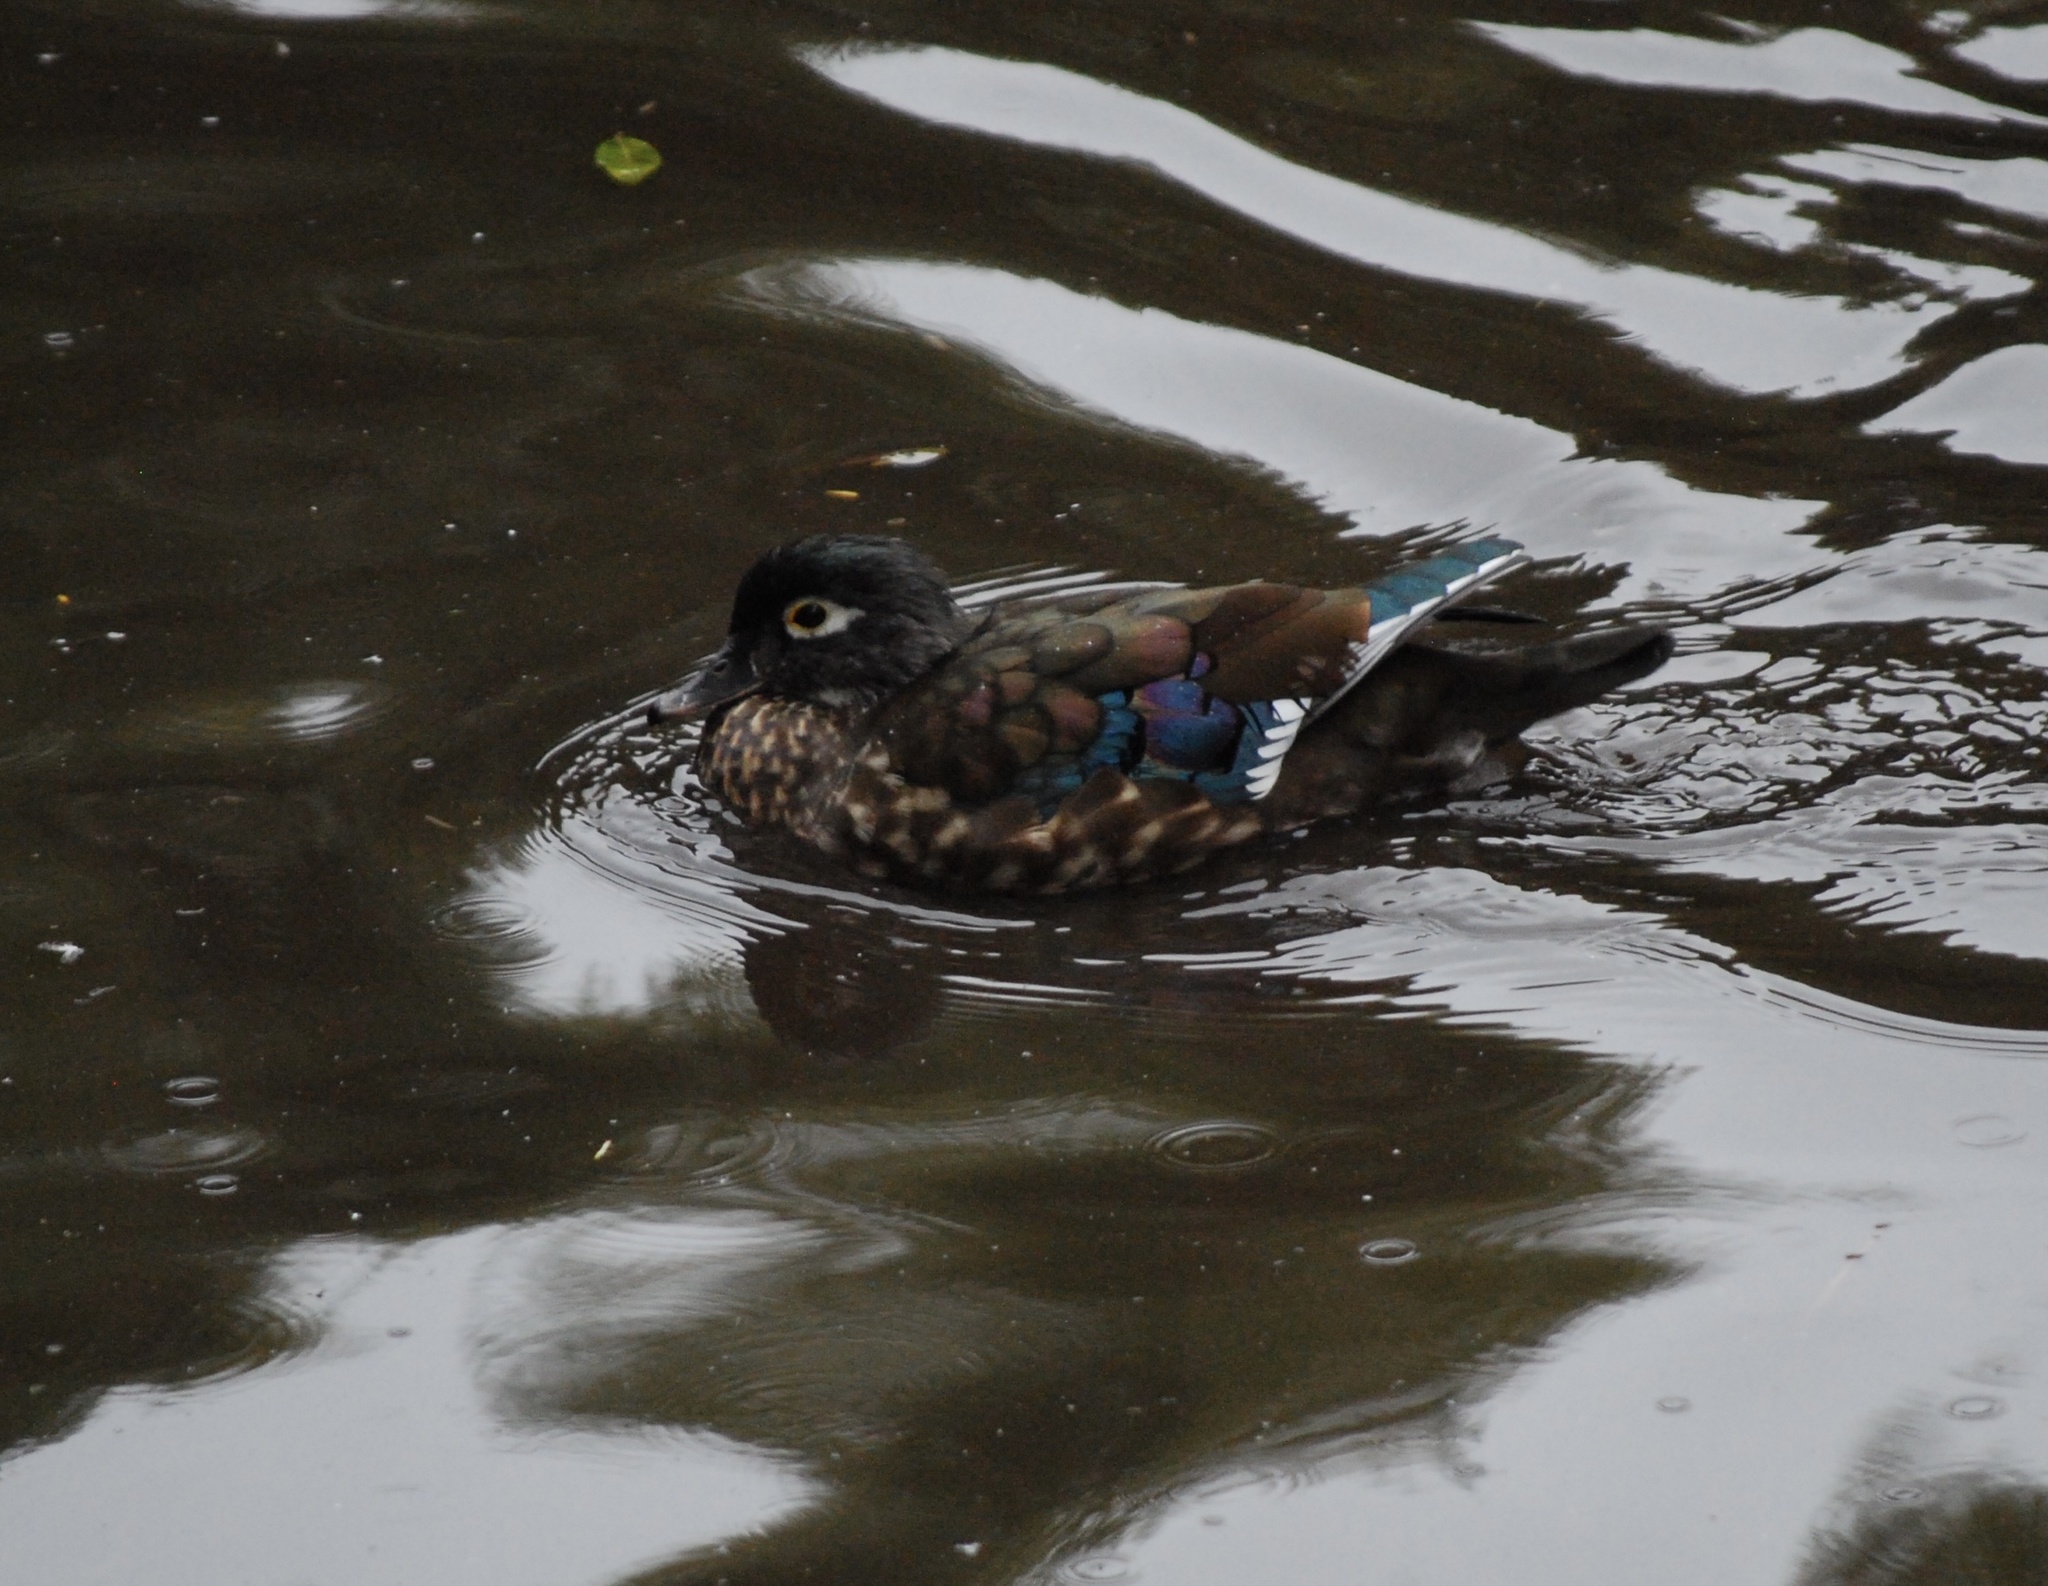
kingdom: Animalia
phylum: Chordata
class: Aves
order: Anseriformes
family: Anatidae
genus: Aix
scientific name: Aix sponsa
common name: Wood duck
